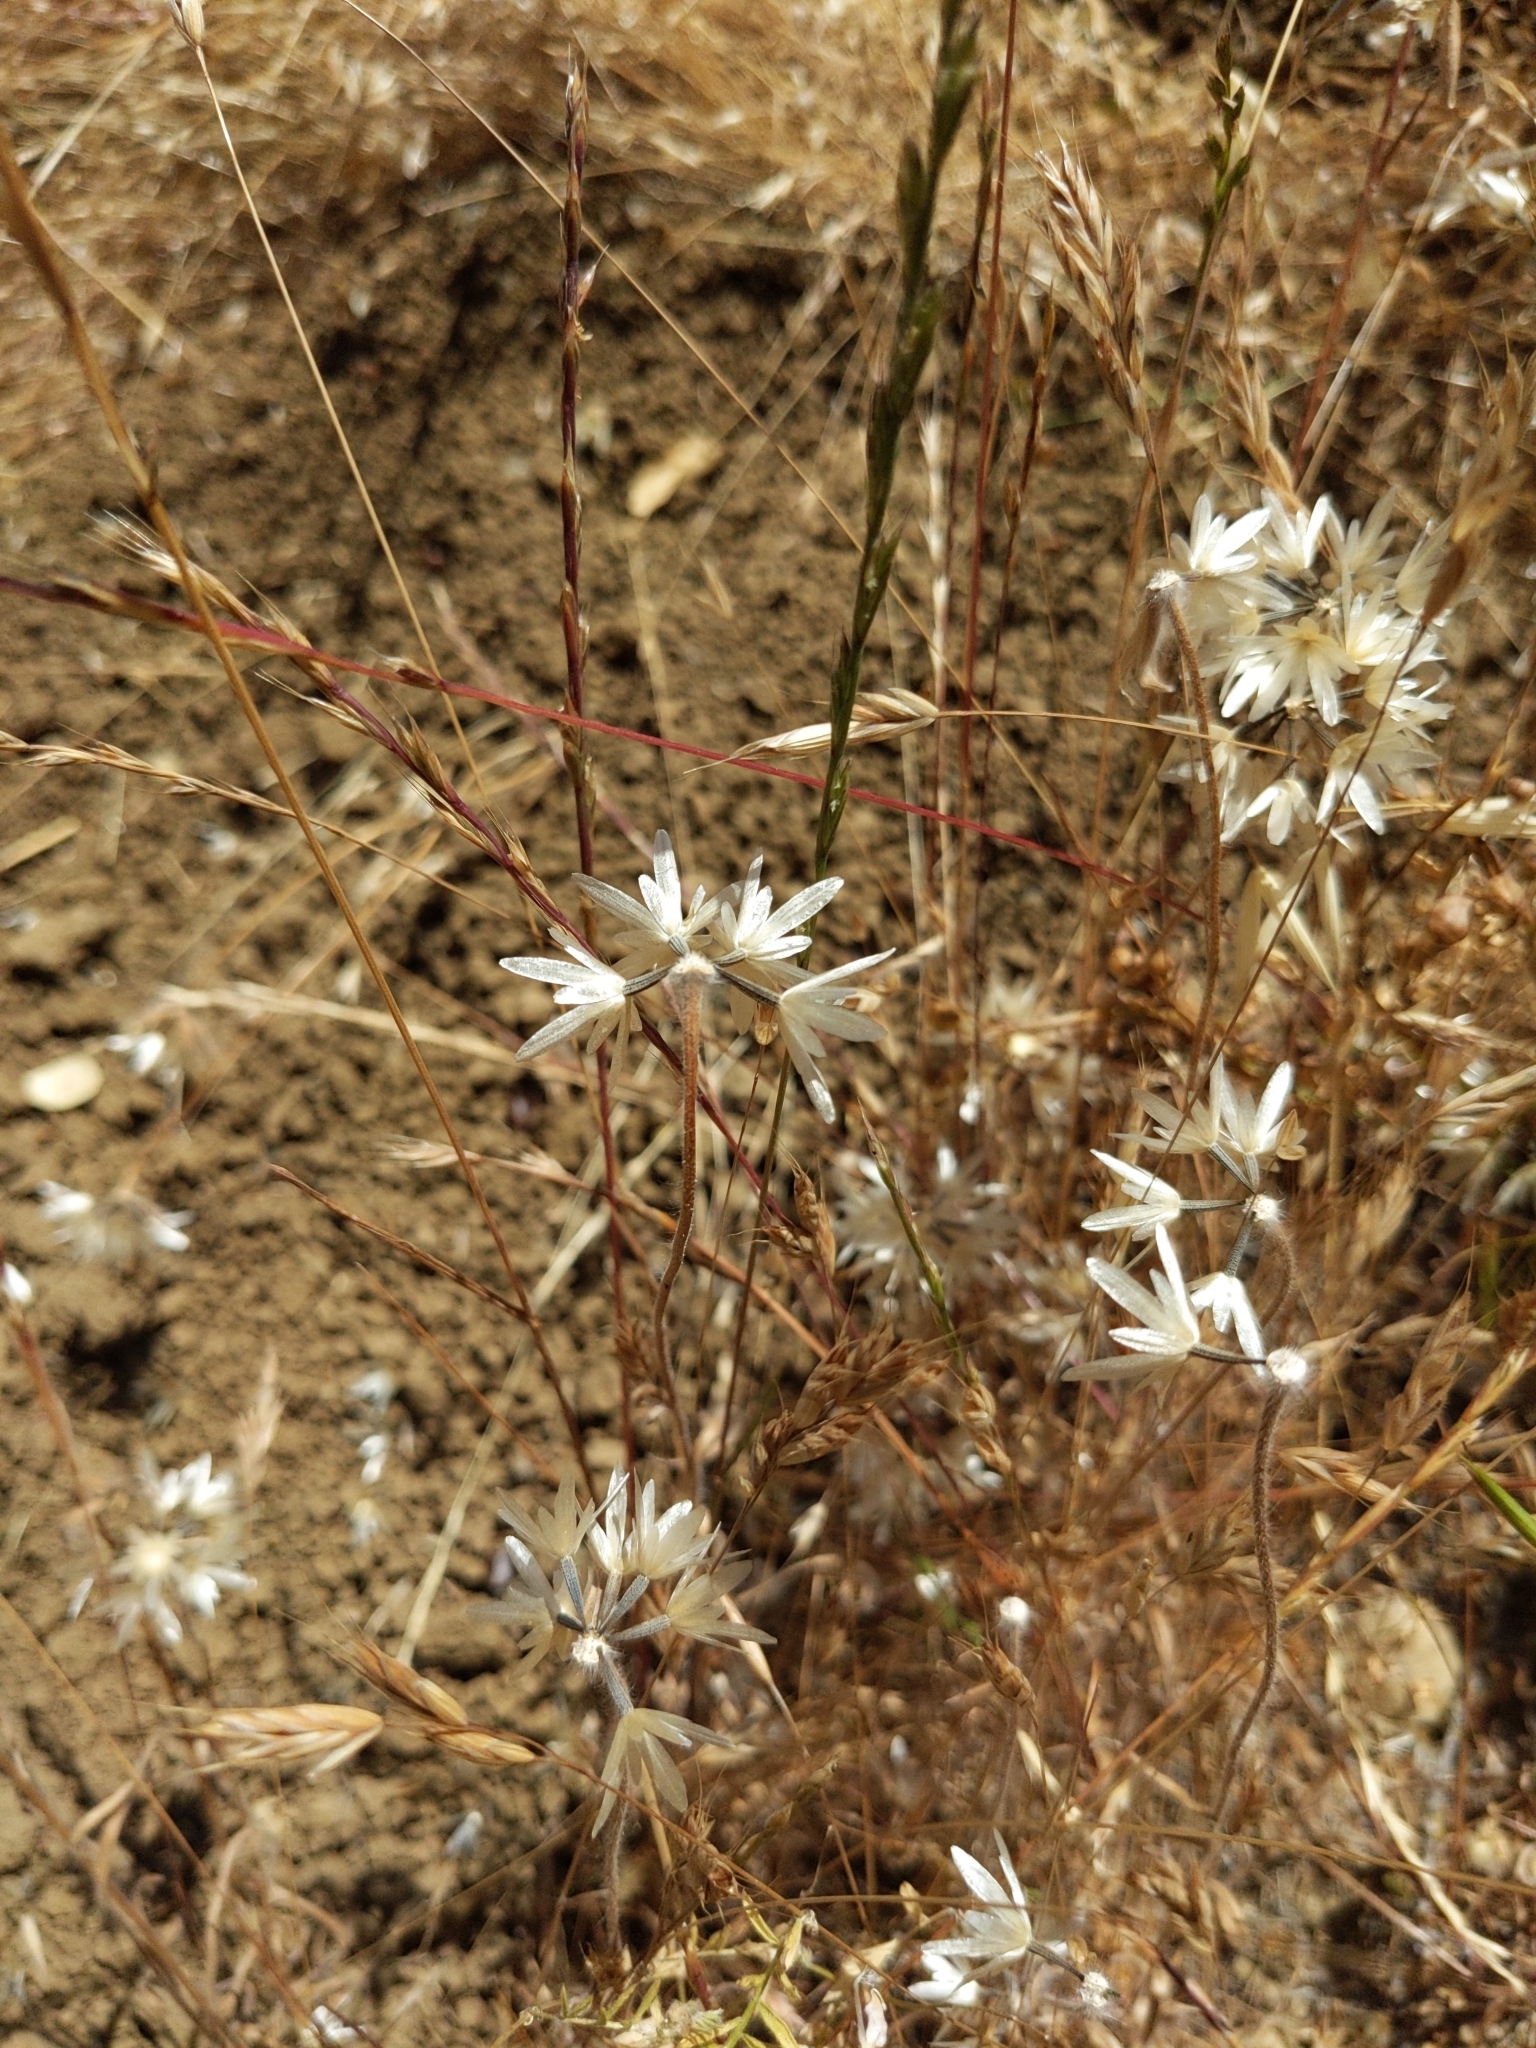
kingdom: Plantae
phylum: Tracheophyta
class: Magnoliopsida
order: Asterales
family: Asteraceae
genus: Achyrachaena
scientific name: Achyrachaena mollis
